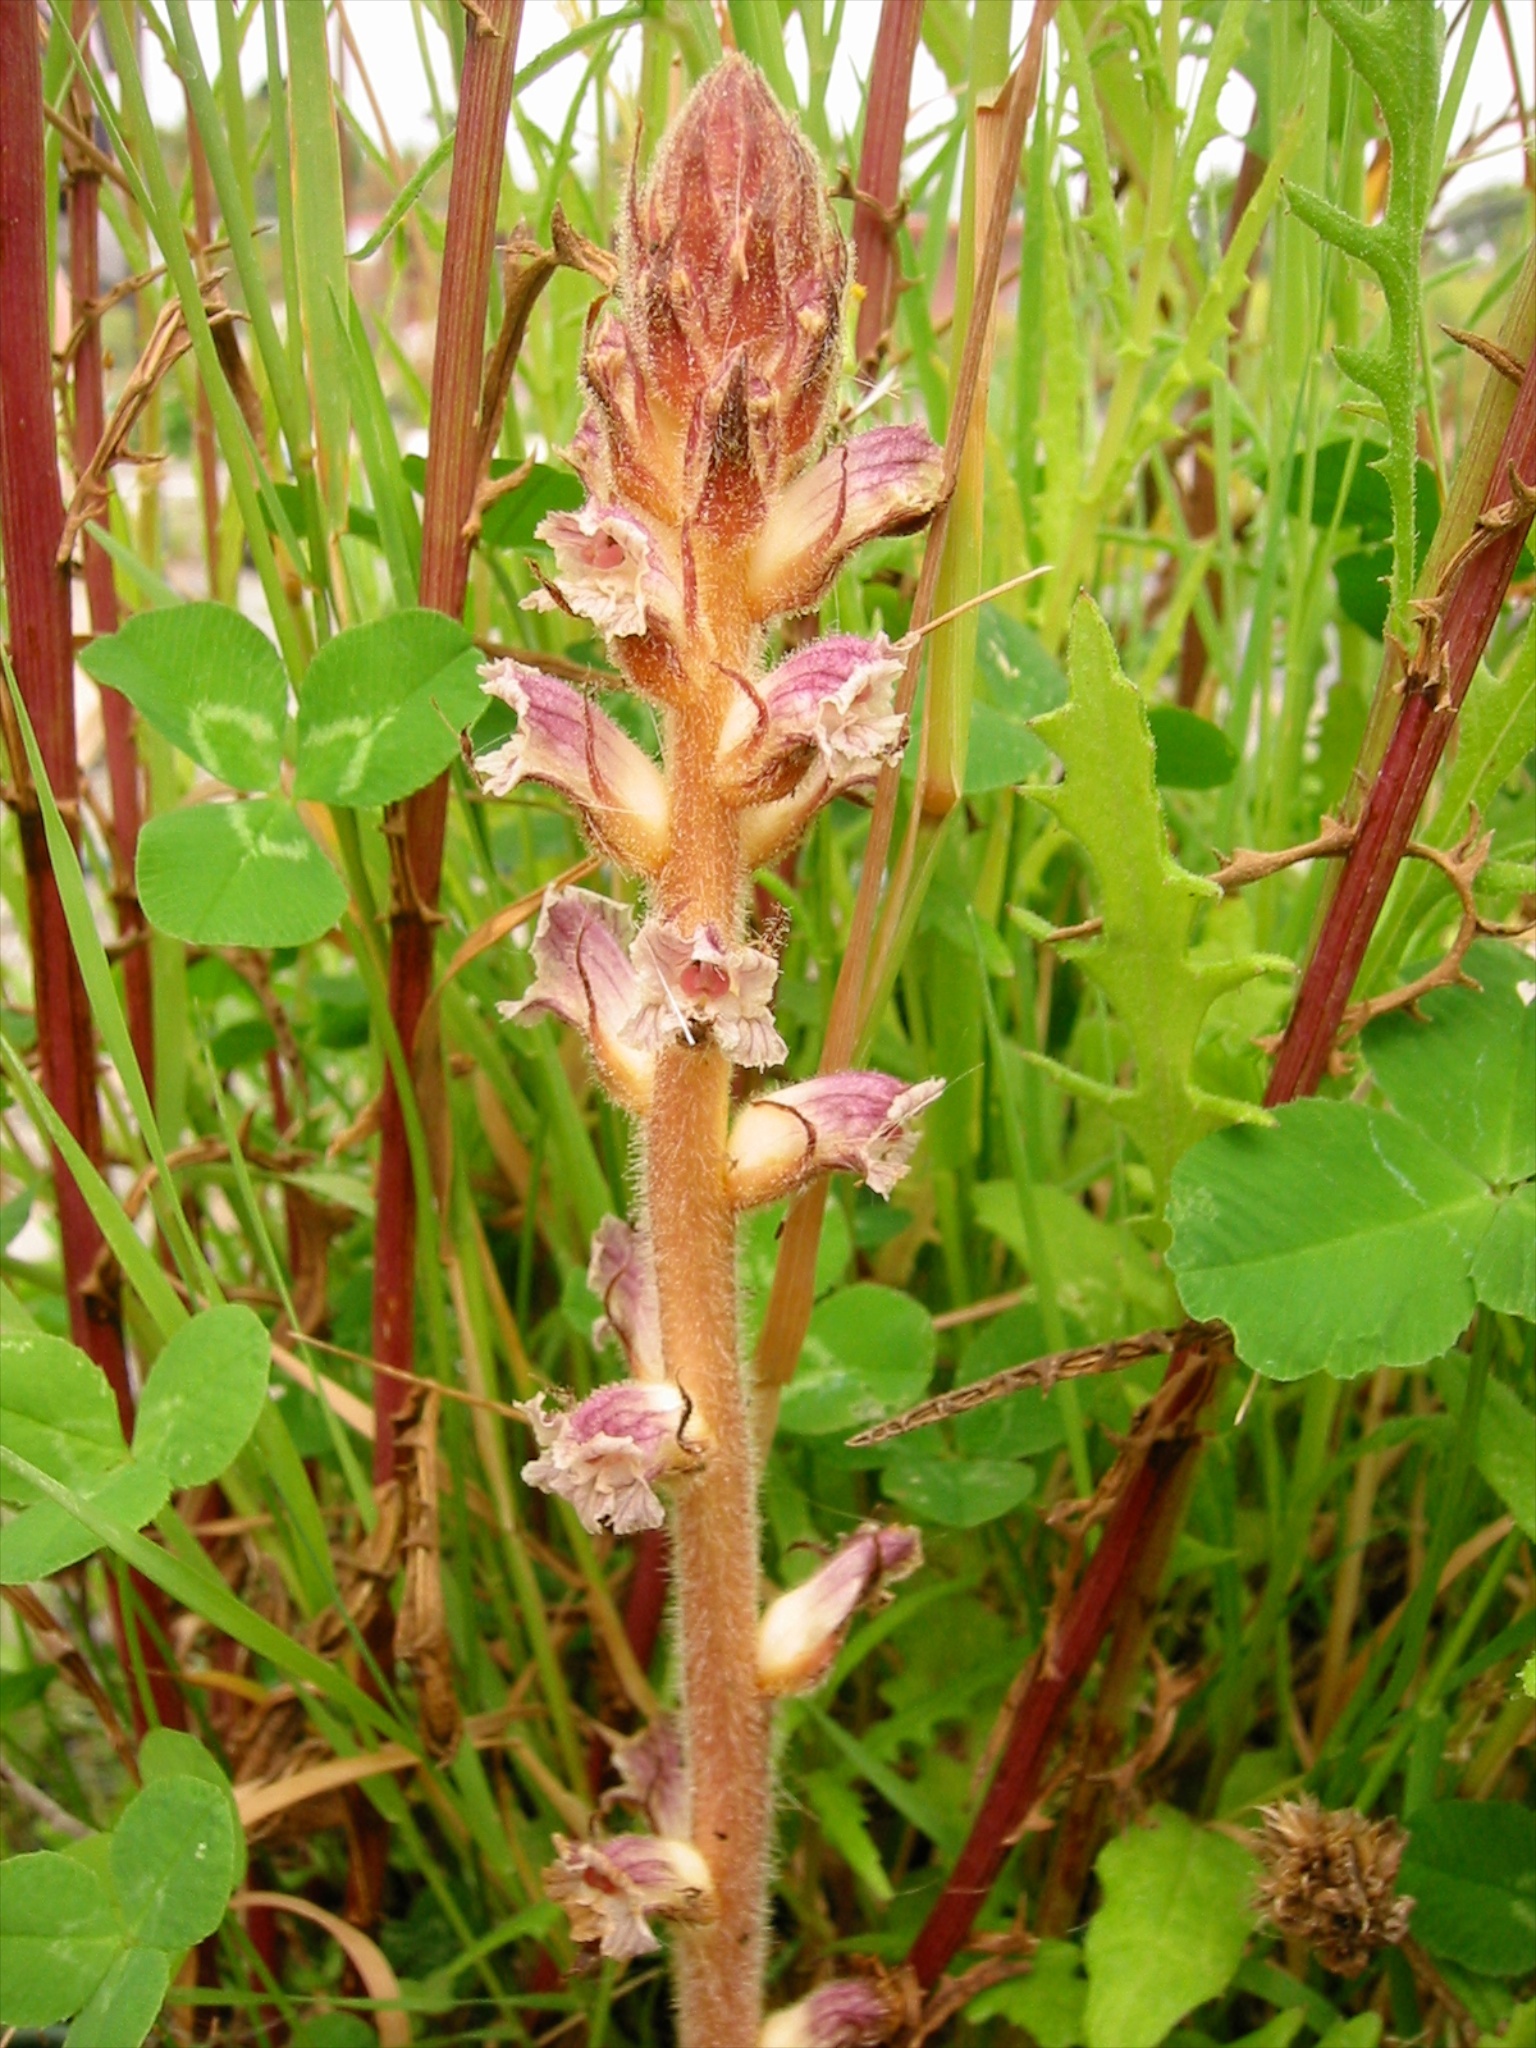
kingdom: Plantae
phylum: Tracheophyta
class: Magnoliopsida
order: Lamiales
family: Orobanchaceae
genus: Orobanche
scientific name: Orobanche minor
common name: Common broomrape
